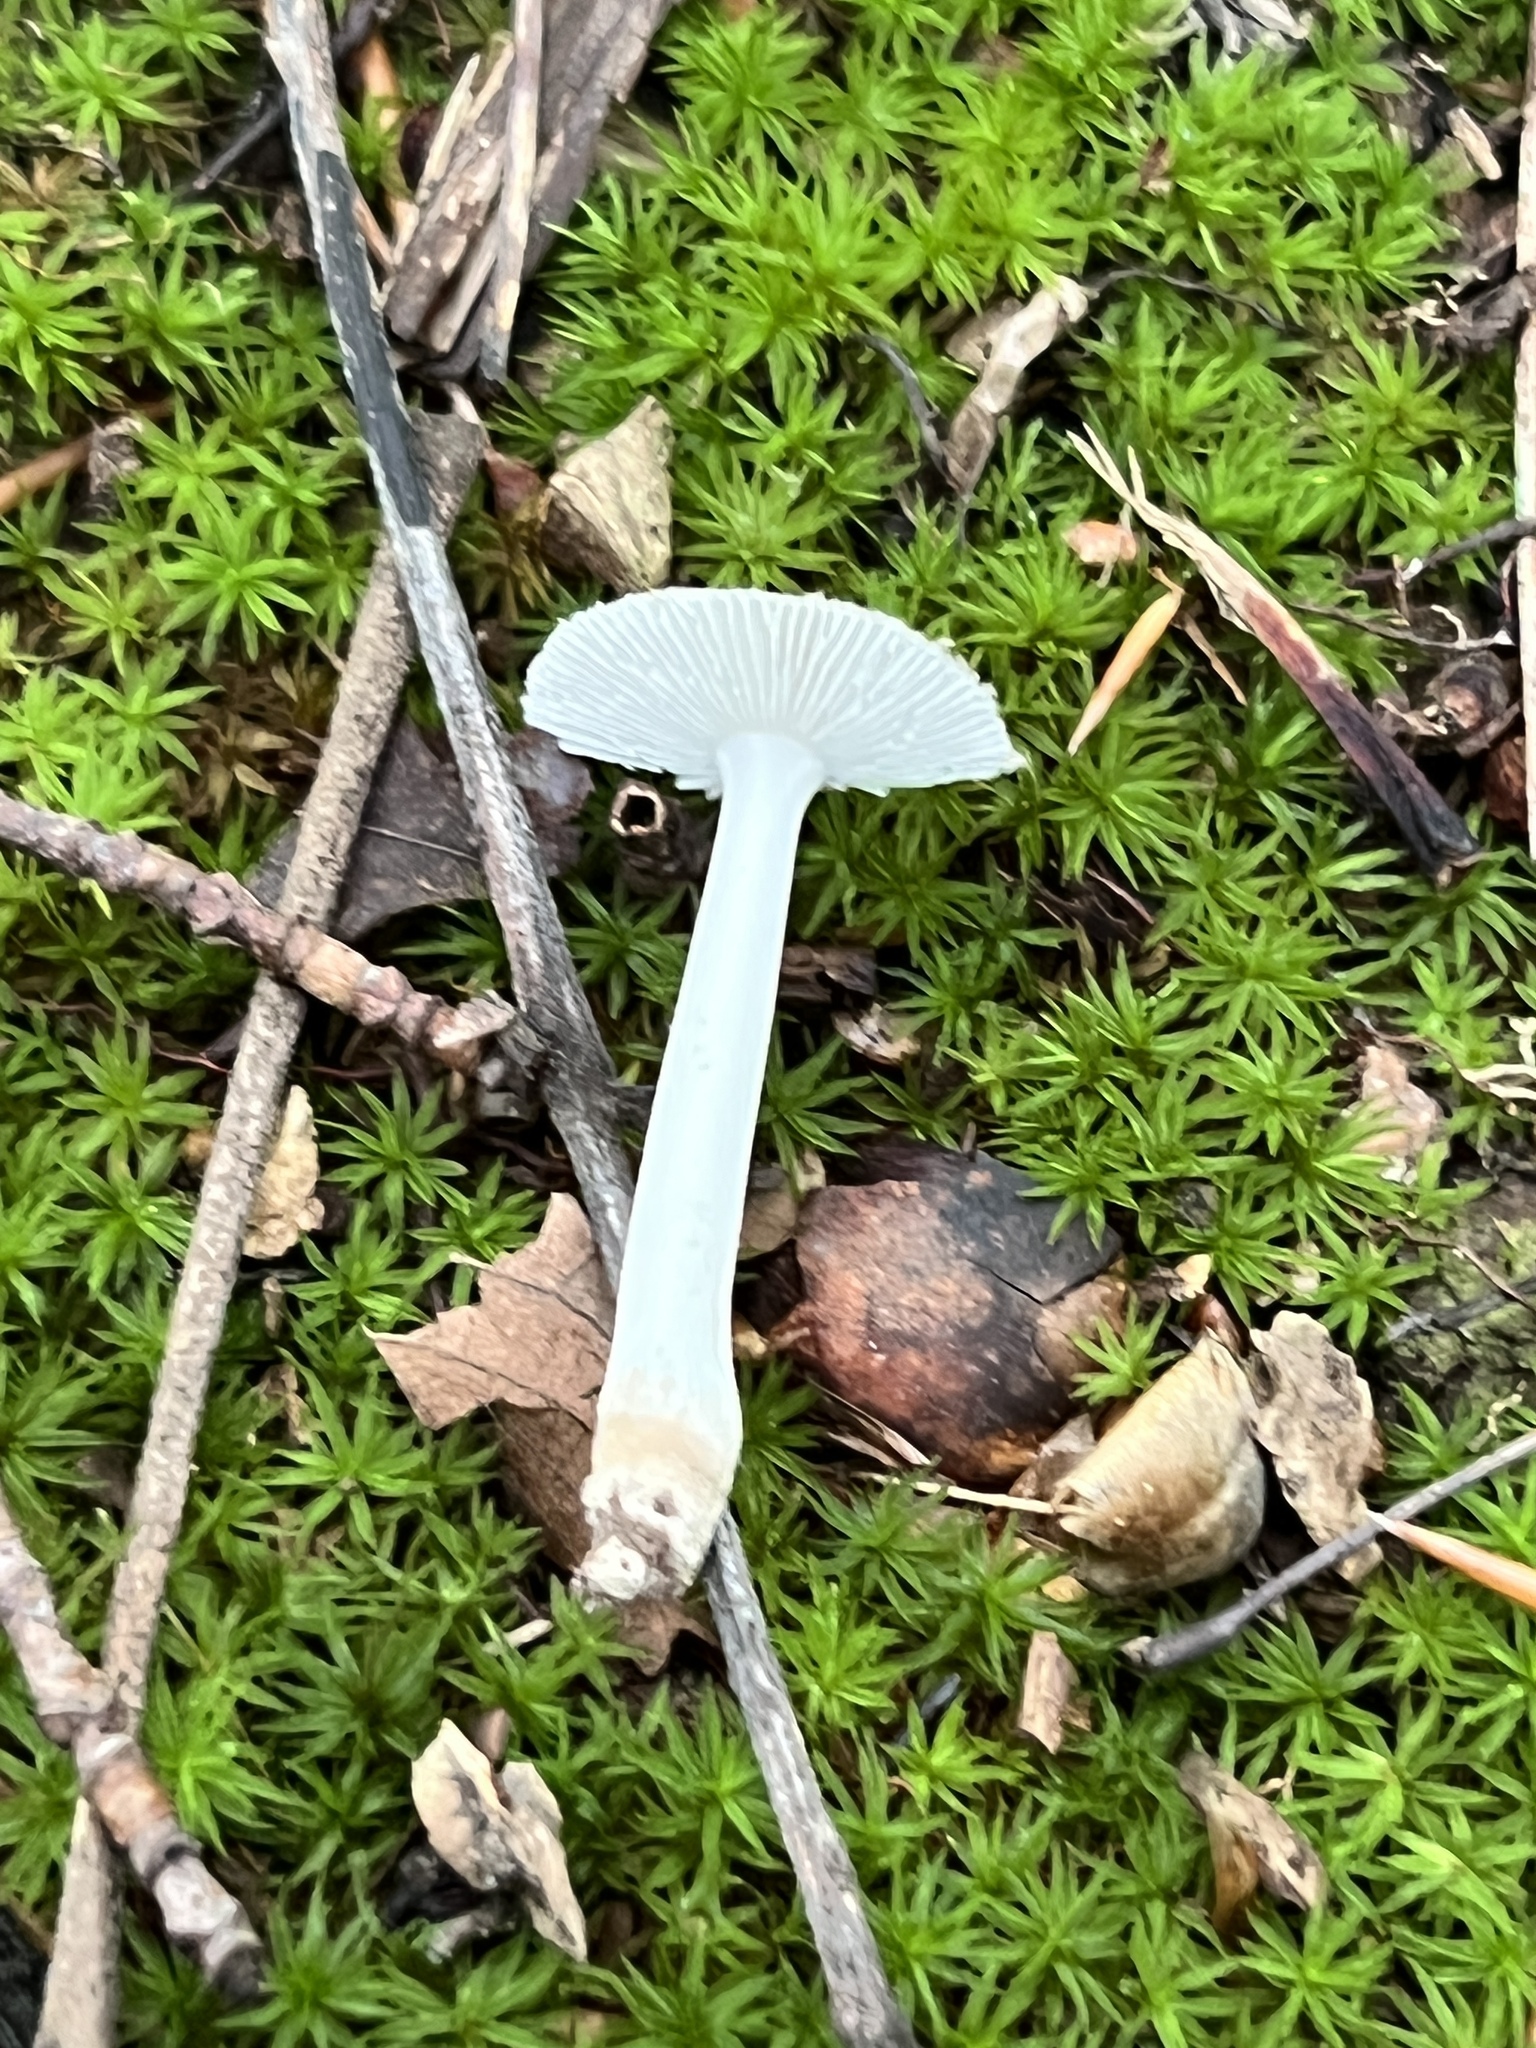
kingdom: Fungi
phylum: Basidiomycota
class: Agaricomycetes
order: Agaricales
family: Amanitaceae
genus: Amanita
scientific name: Amanita farinosa
